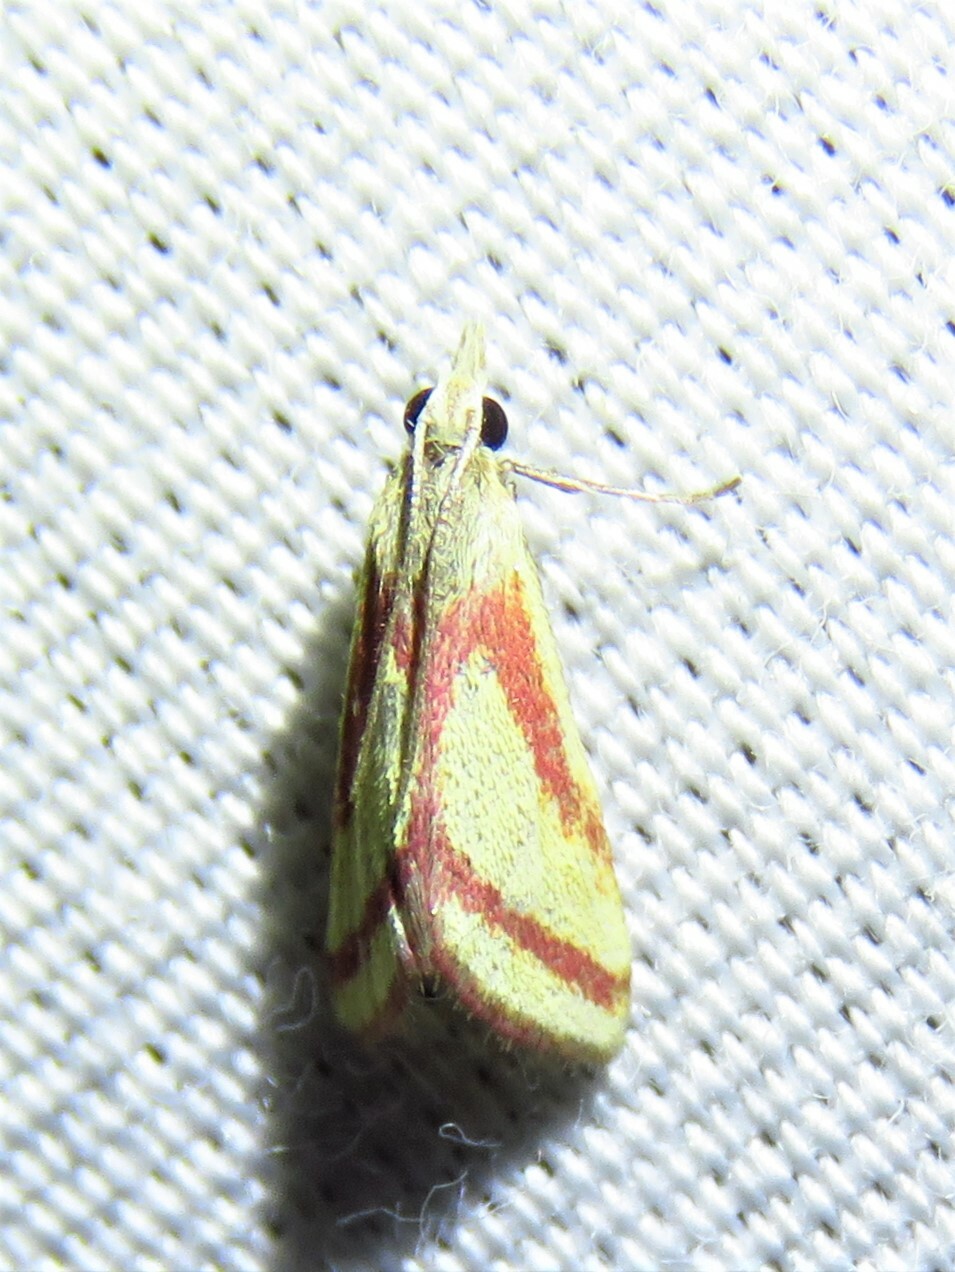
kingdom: Animalia
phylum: Arthropoda
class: Insecta
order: Lepidoptera
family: Crambidae
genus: Microtheoris
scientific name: Microtheoris vibicalis
